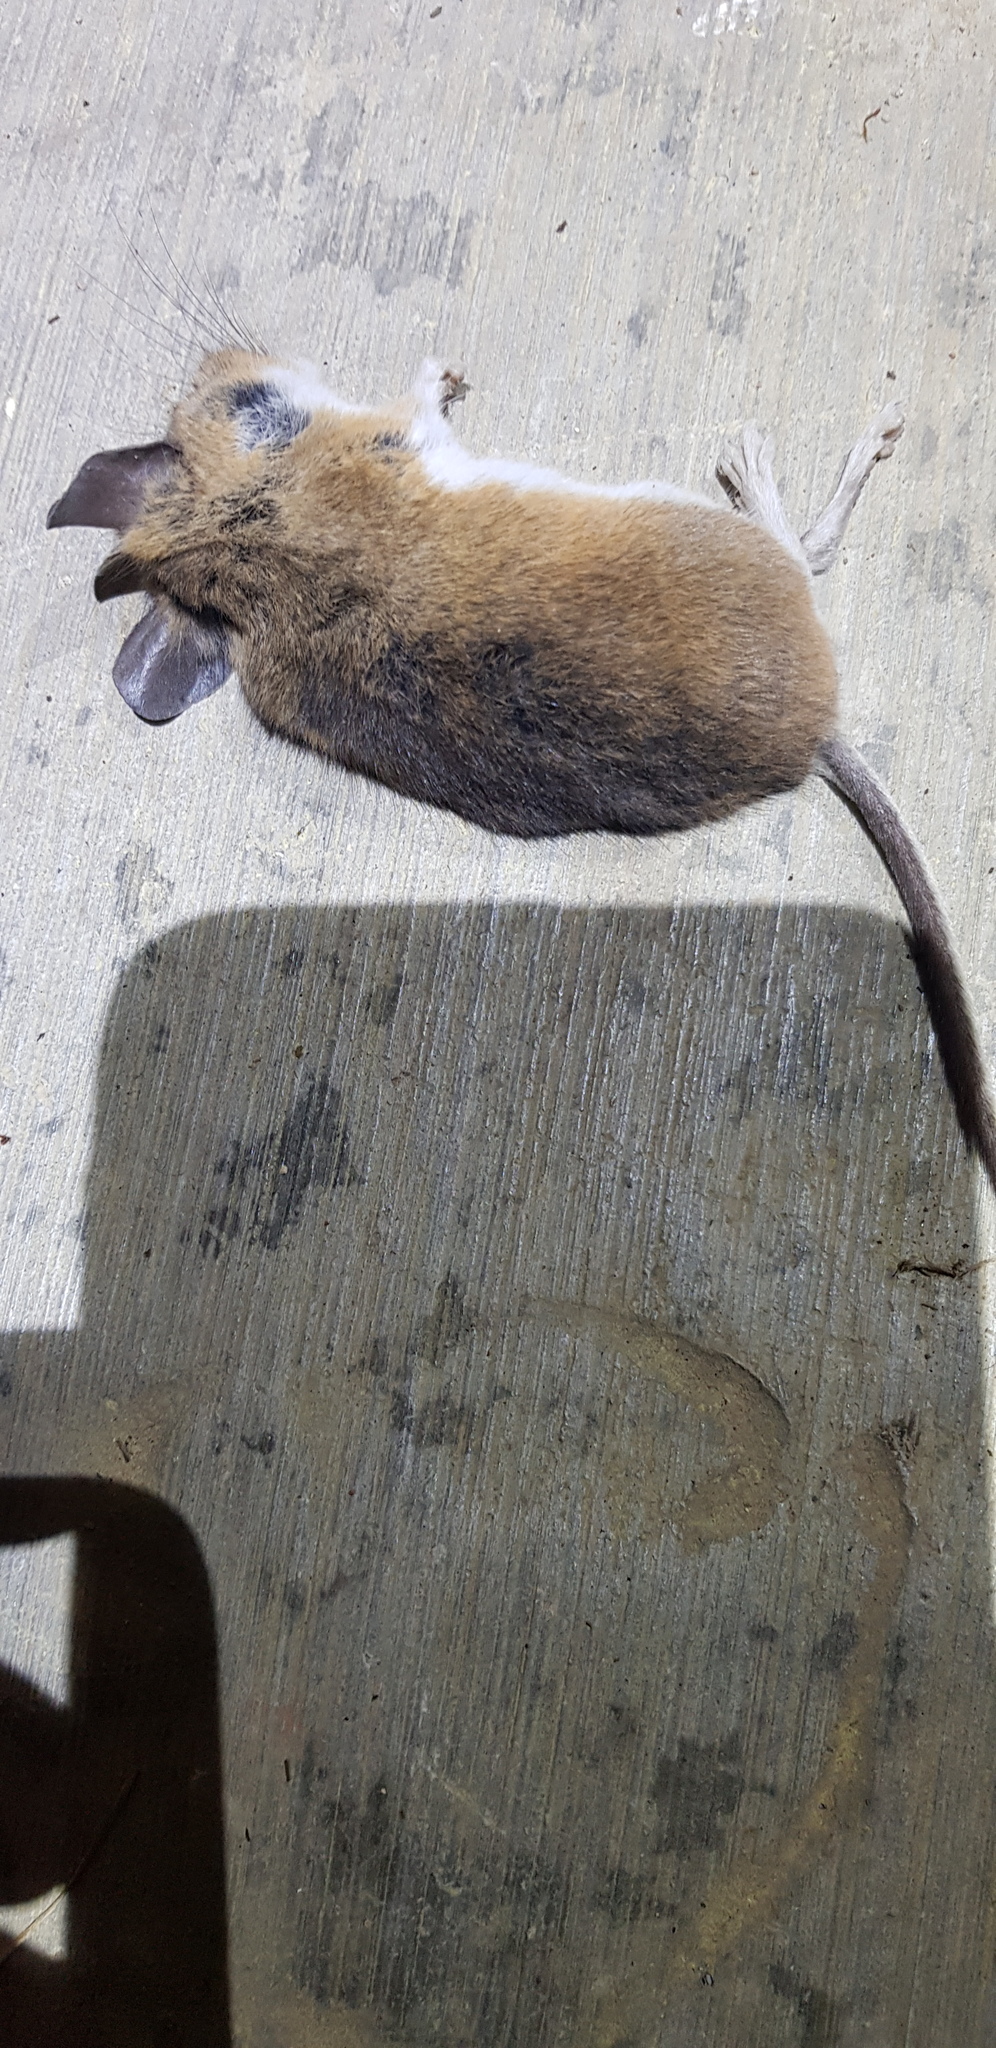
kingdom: Animalia
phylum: Chordata
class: Mammalia
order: Rodentia
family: Cricetidae
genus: Peromyscus
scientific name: Peromyscus leucopus
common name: White-footed deermouse
